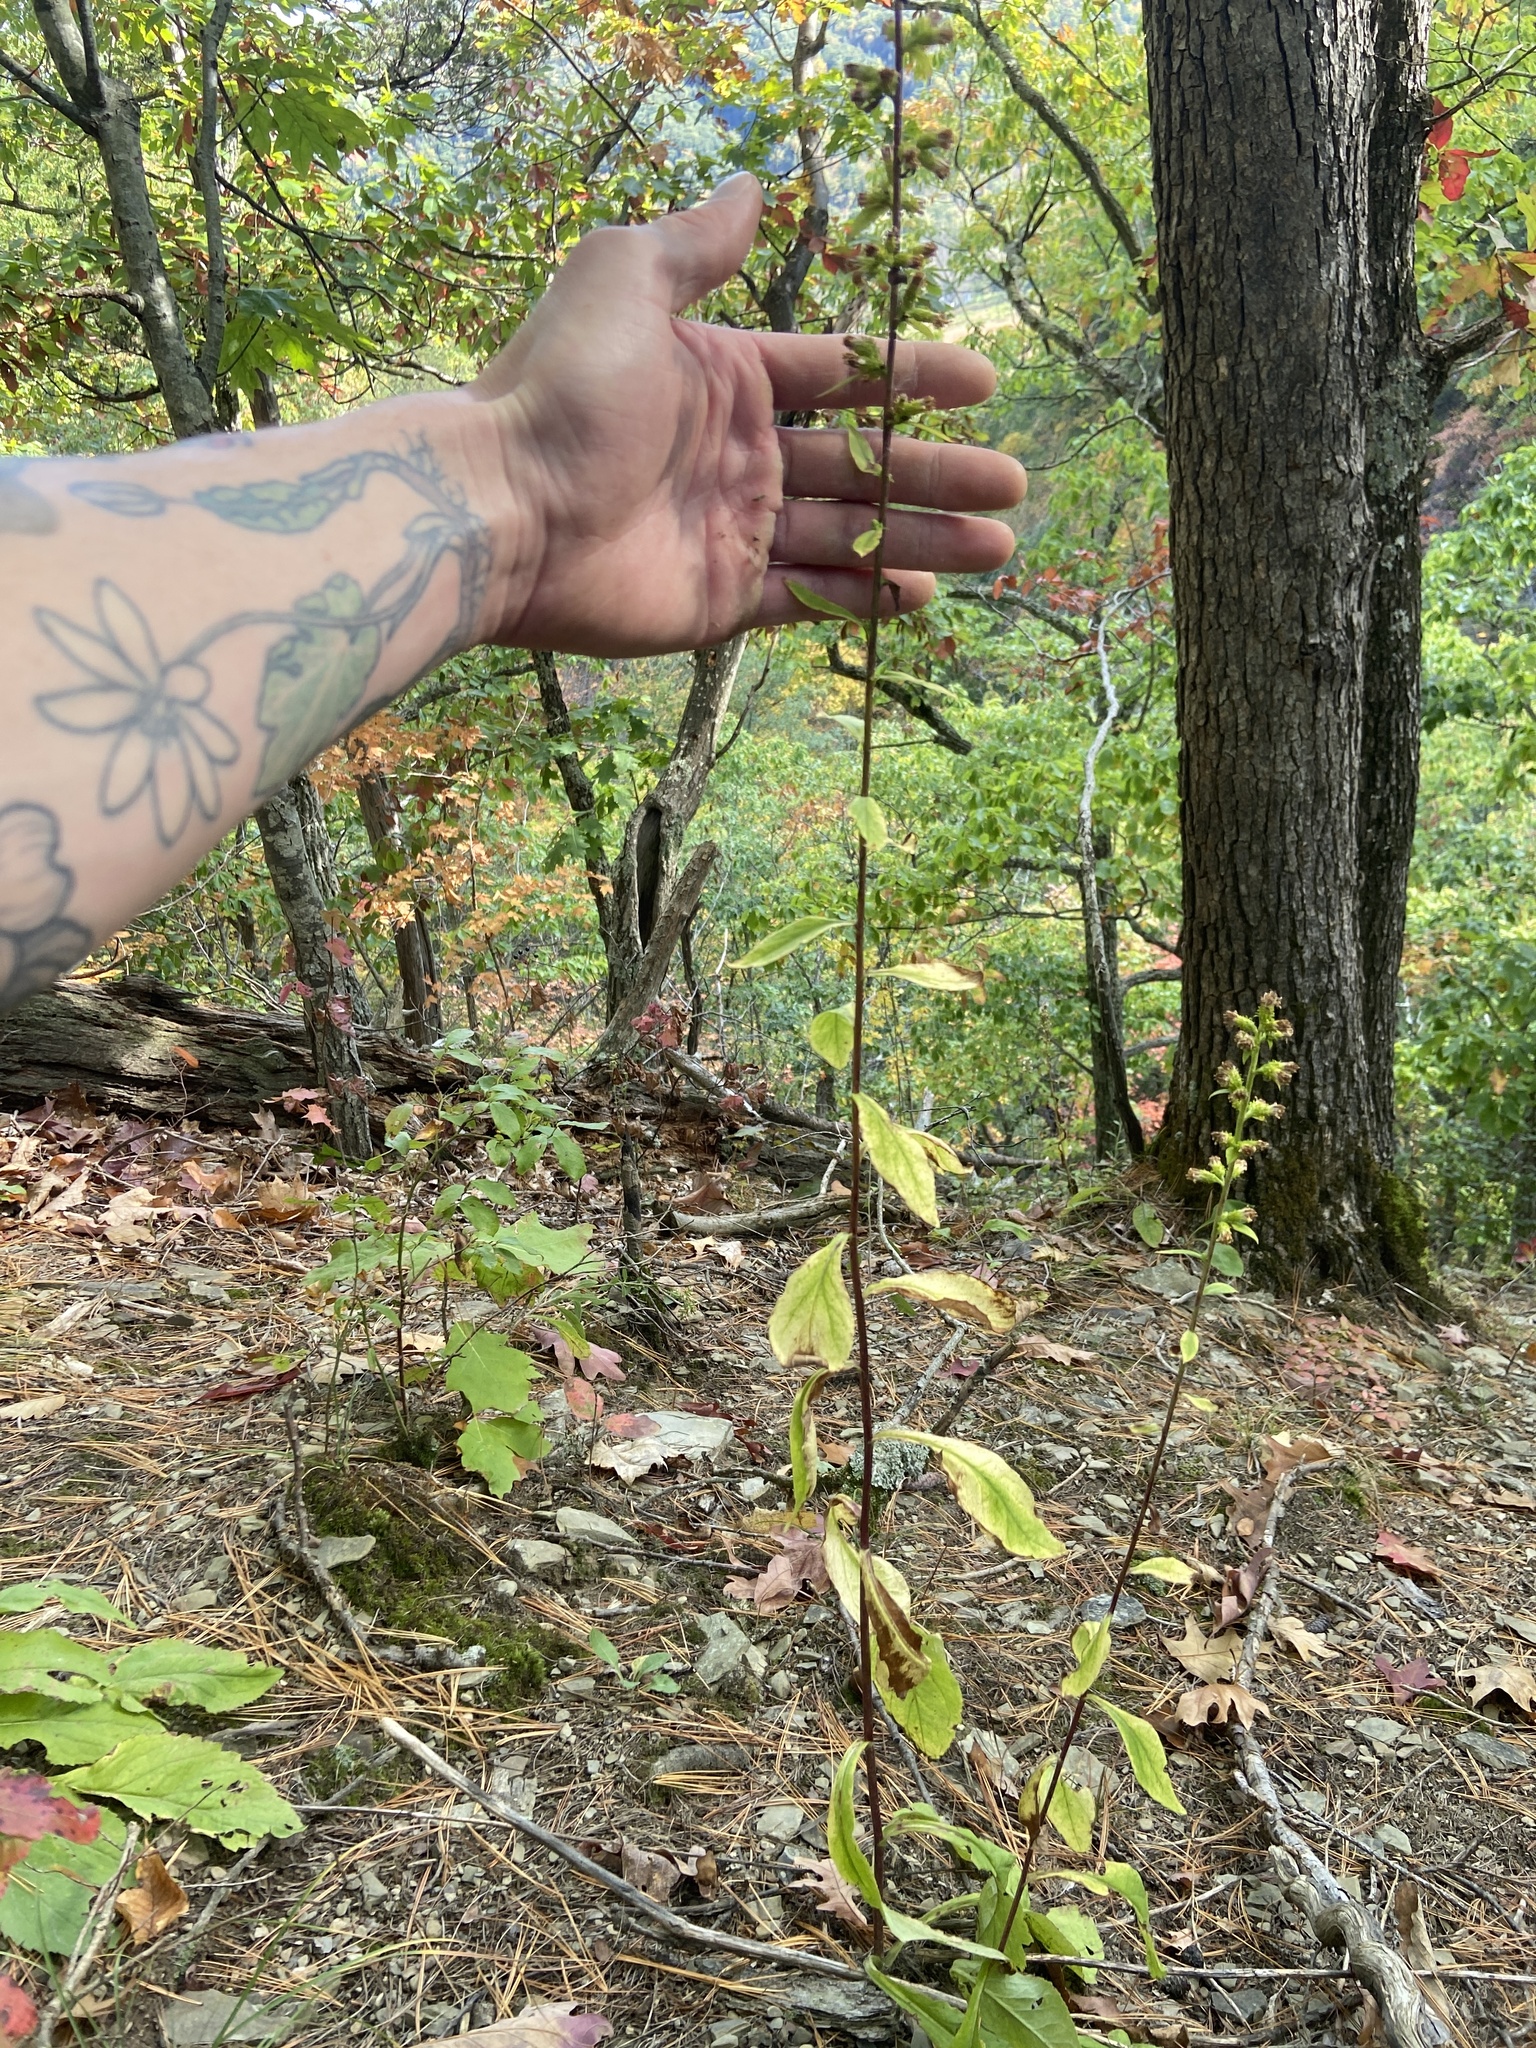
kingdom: Plantae
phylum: Tracheophyta
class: Magnoliopsida
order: Asterales
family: Asteraceae
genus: Solidago
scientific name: Solidago squarrosa
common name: Stout goldenrod
